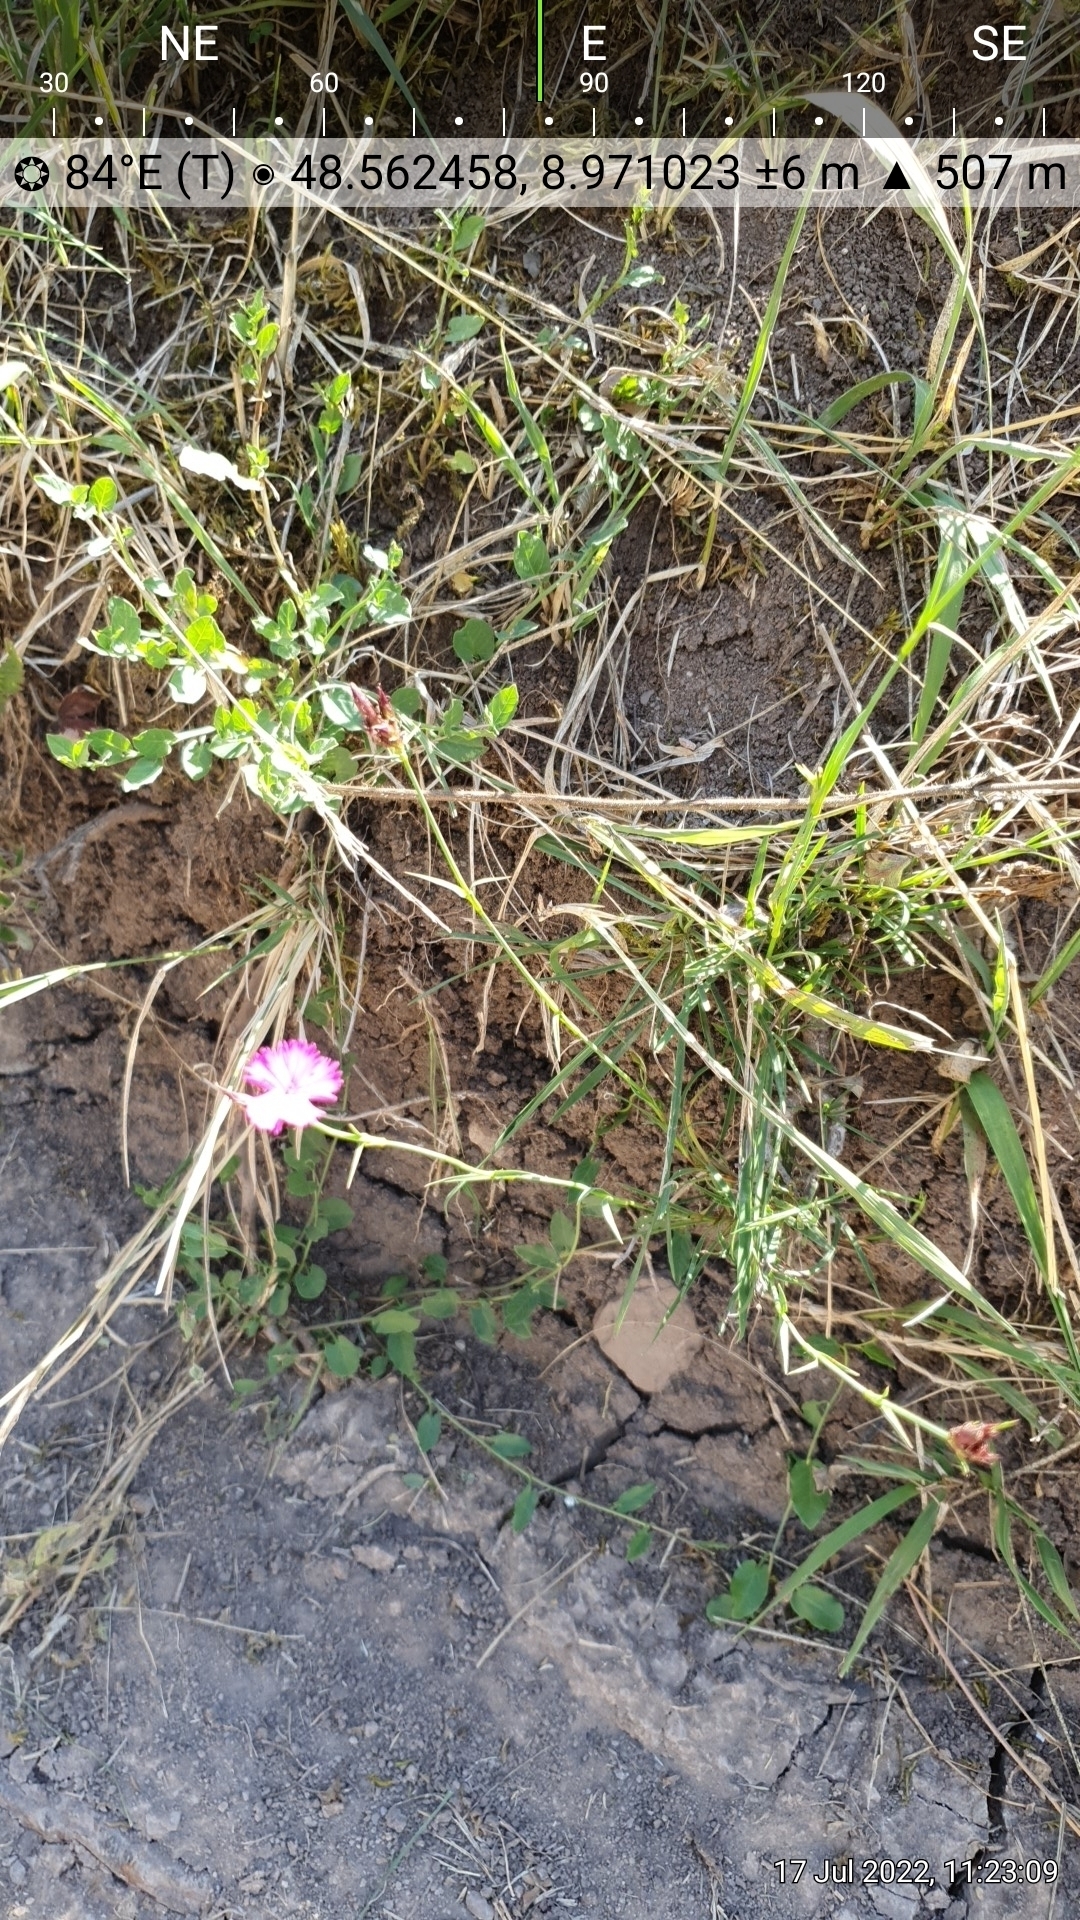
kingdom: Plantae
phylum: Tracheophyta
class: Magnoliopsida
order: Caryophyllales
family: Caryophyllaceae
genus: Dianthus
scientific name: Dianthus carthusianorum
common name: Carthusian pink
